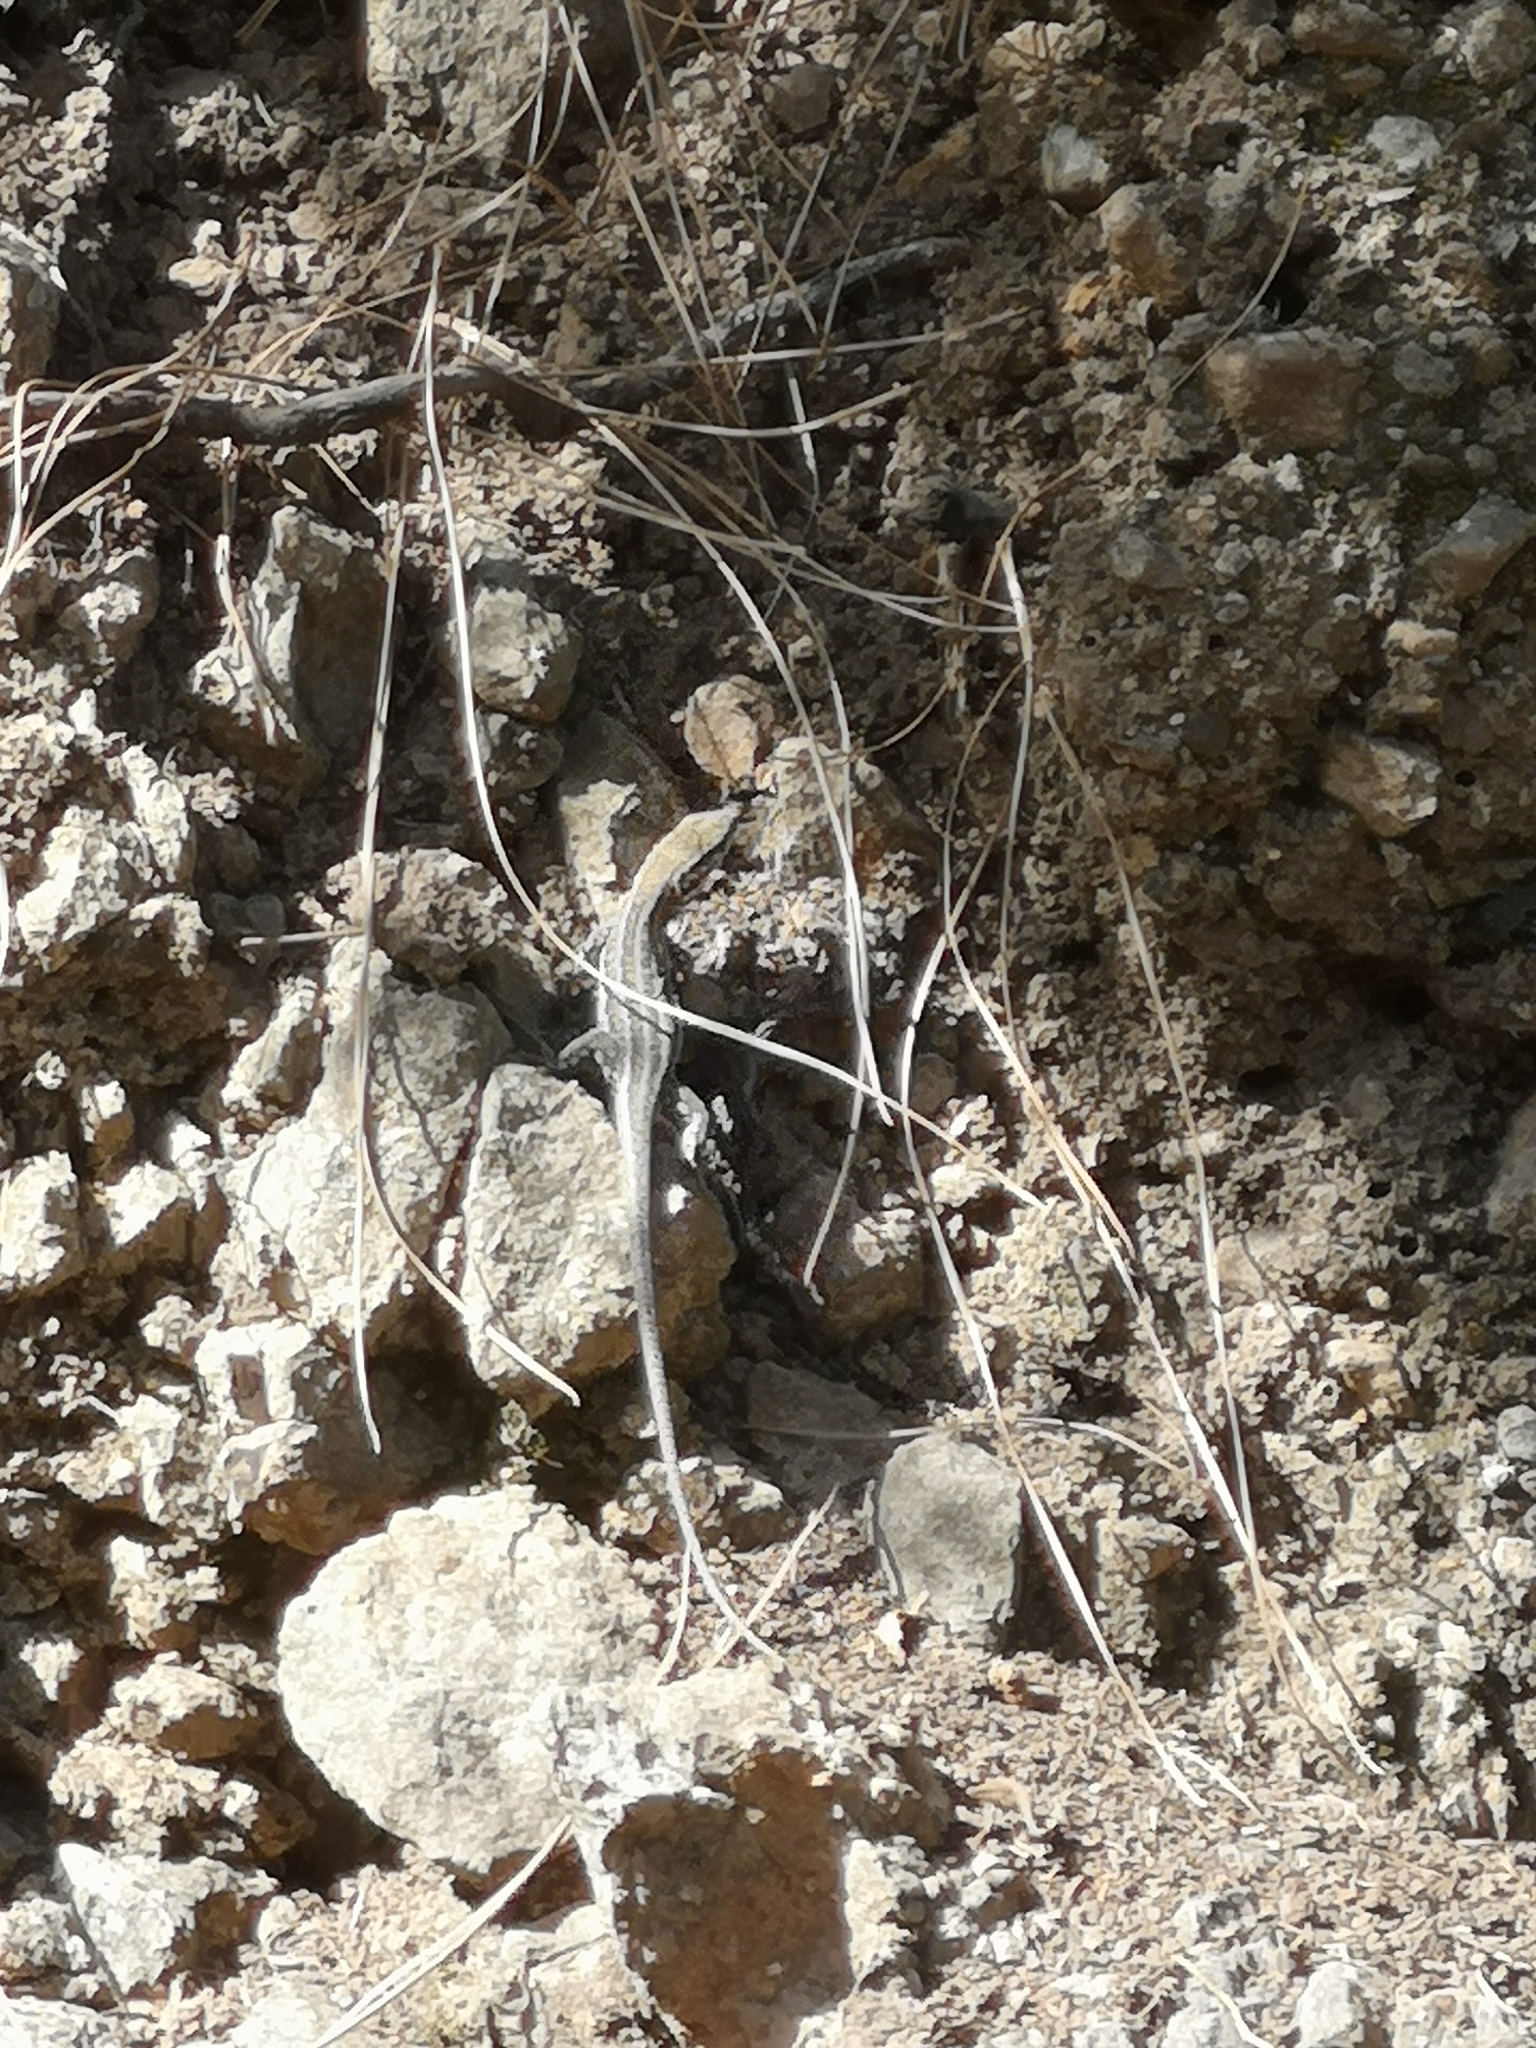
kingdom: Animalia
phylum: Chordata
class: Squamata
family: Lacertidae
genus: Gallotia
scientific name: Gallotia galloti
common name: Gallot's lizard
